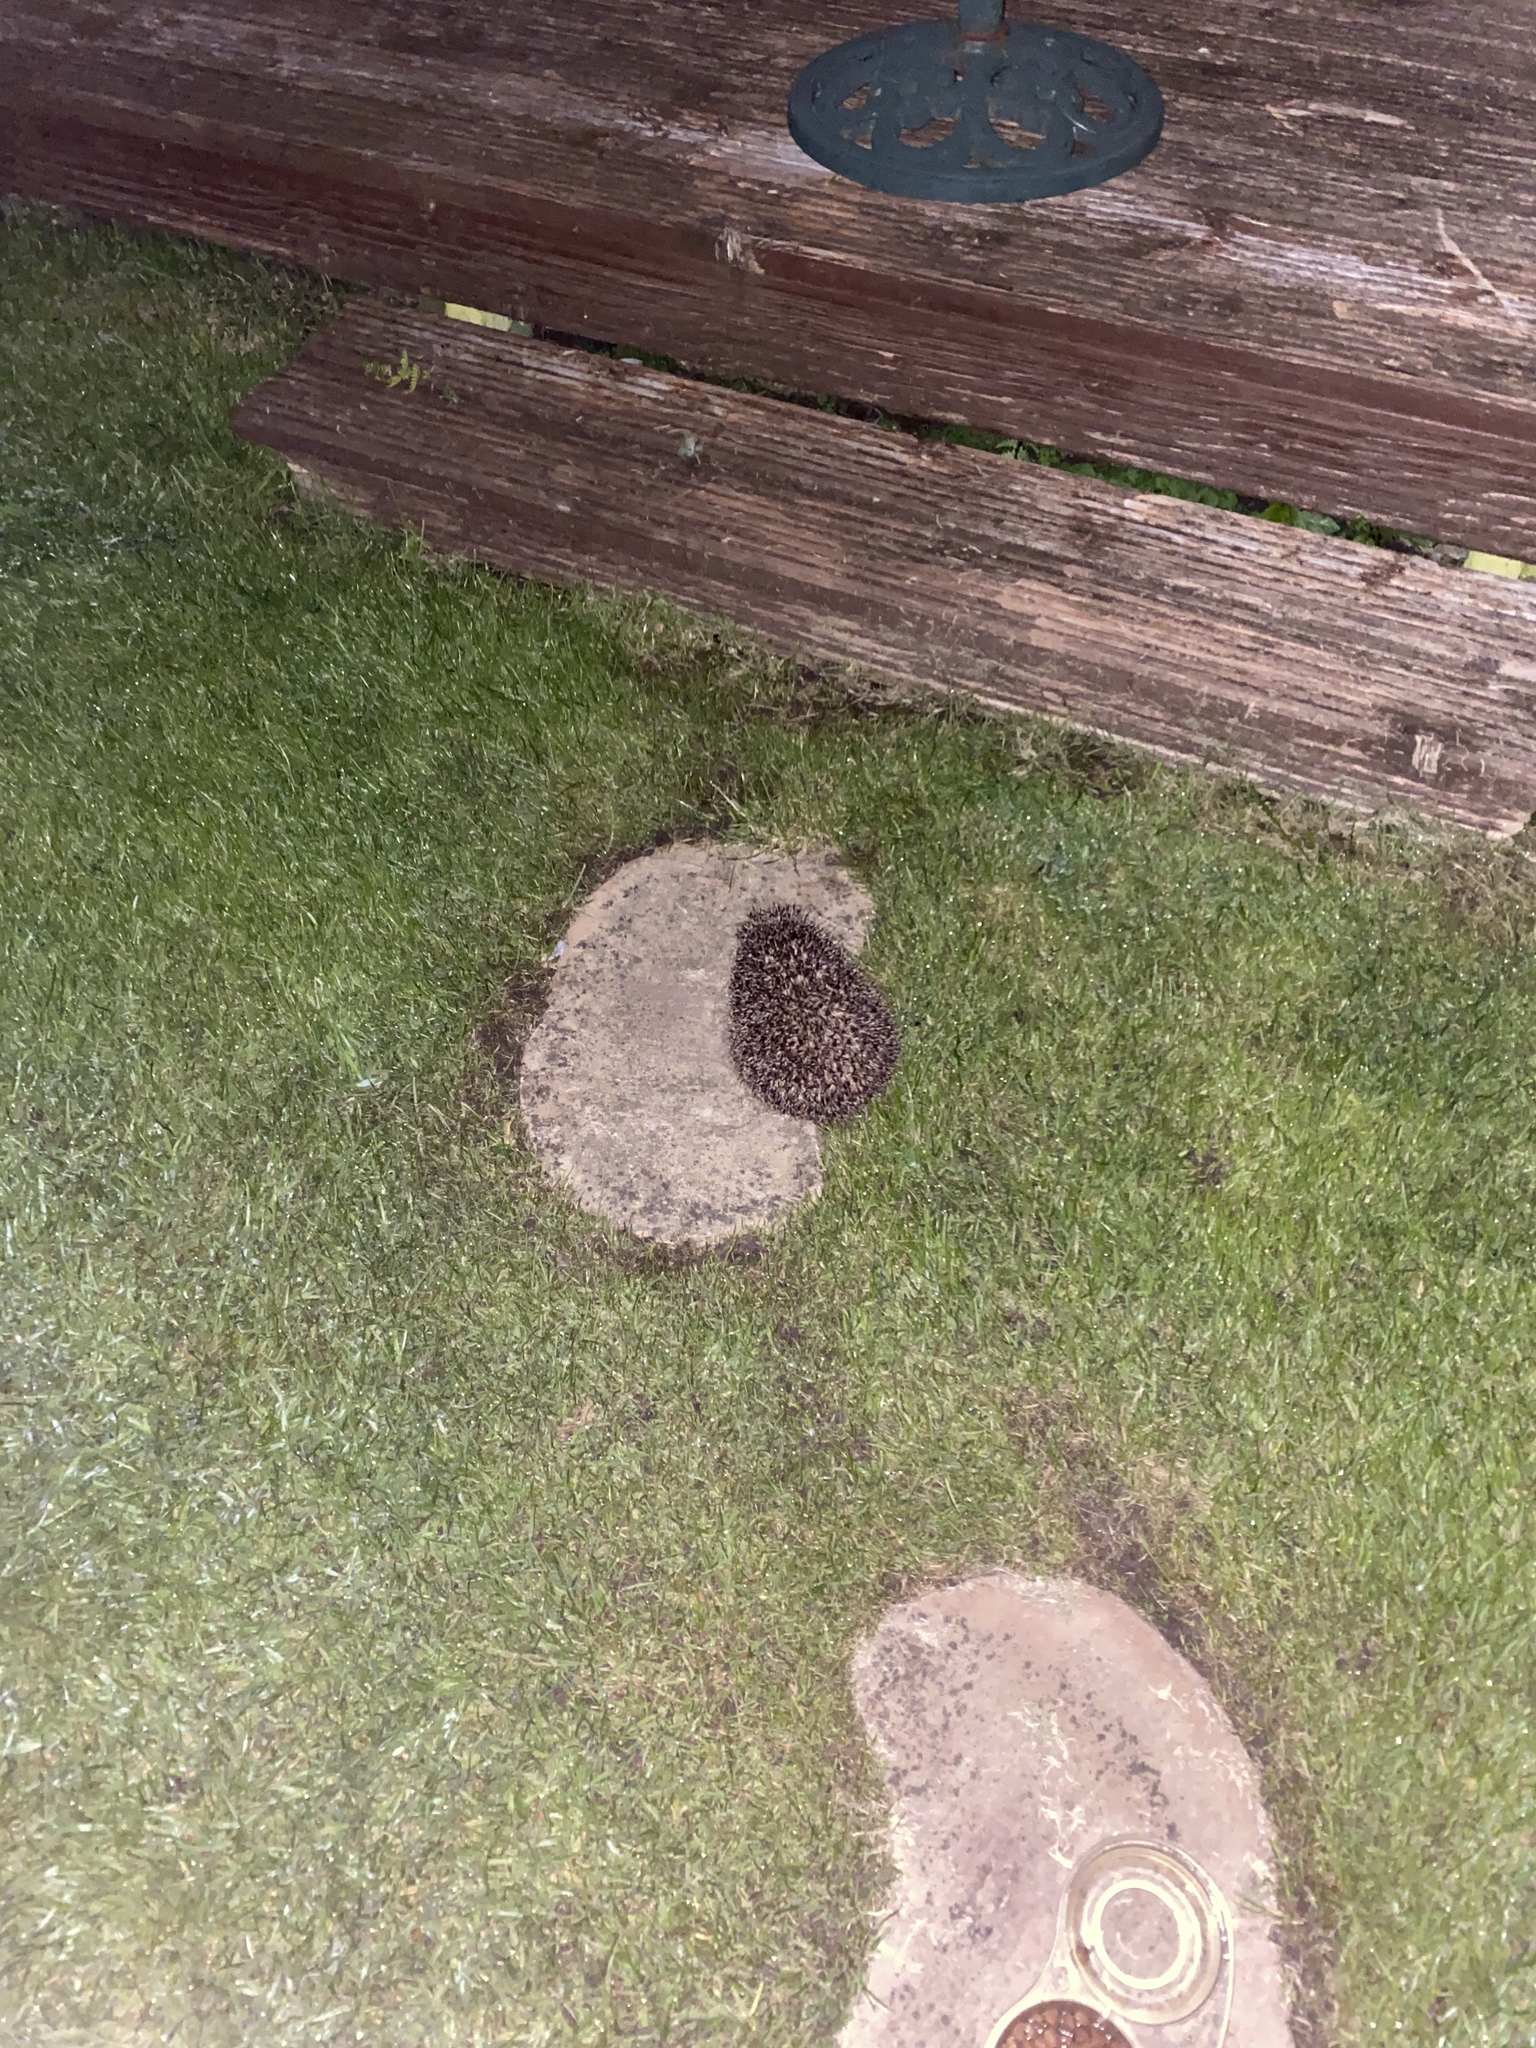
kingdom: Animalia
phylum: Chordata
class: Mammalia
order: Erinaceomorpha
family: Erinaceidae
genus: Erinaceus
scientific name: Erinaceus europaeus
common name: West european hedgehog
